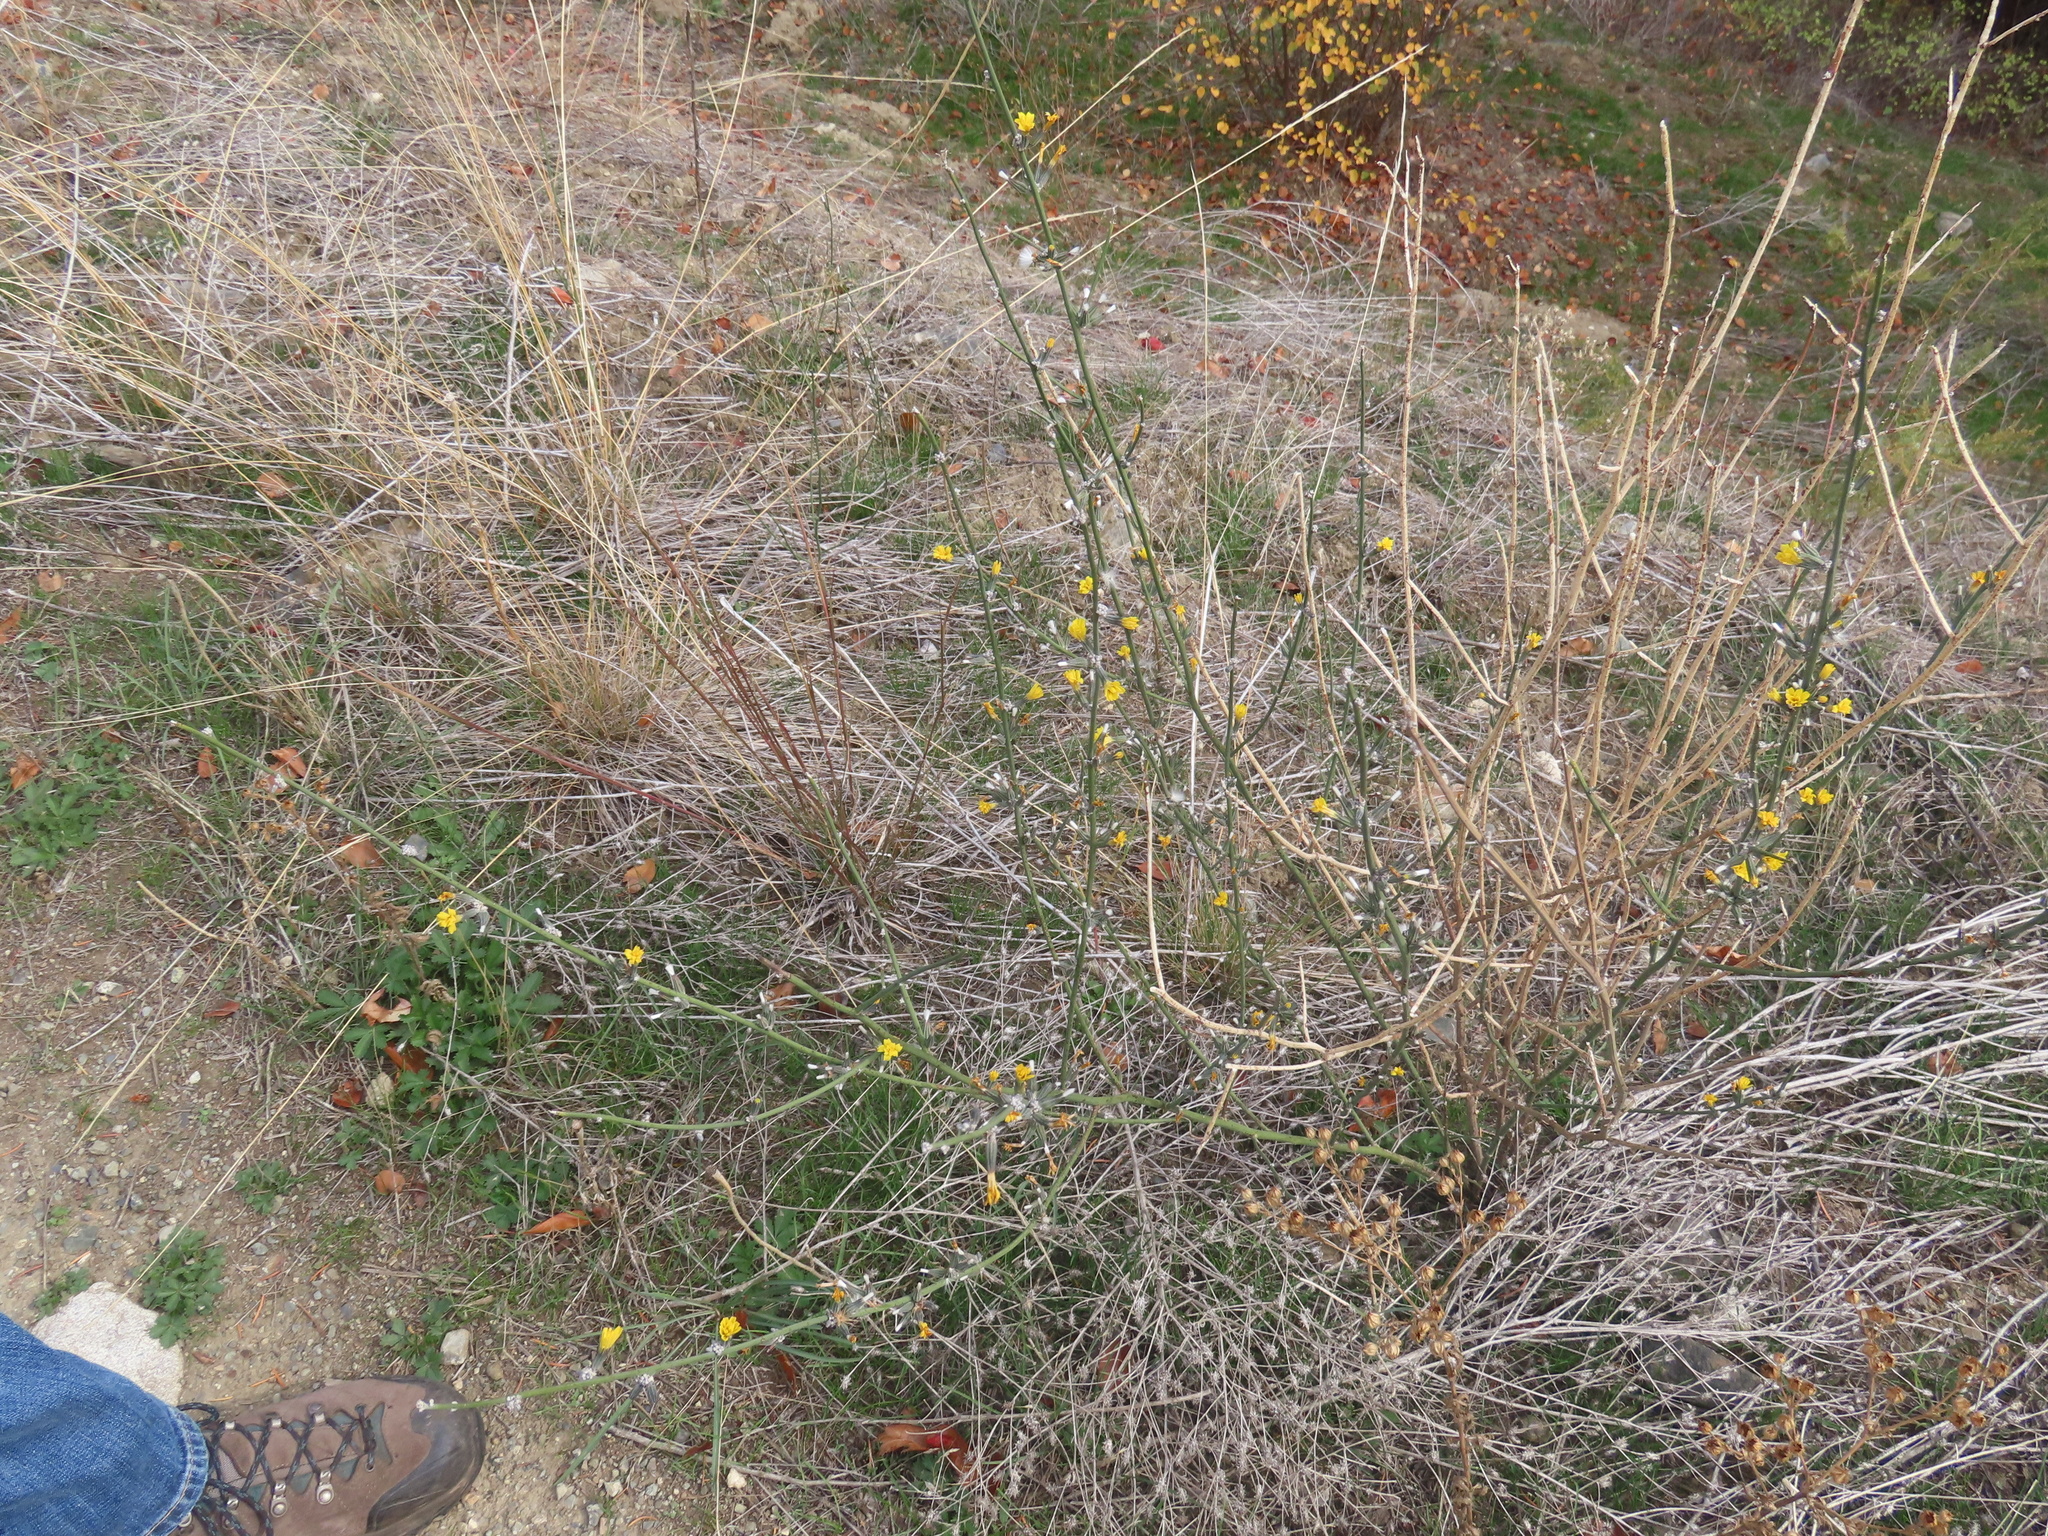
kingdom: Plantae
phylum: Tracheophyta
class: Magnoliopsida
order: Asterales
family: Asteraceae
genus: Chondrilla
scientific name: Chondrilla juncea
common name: Skeleton weed
